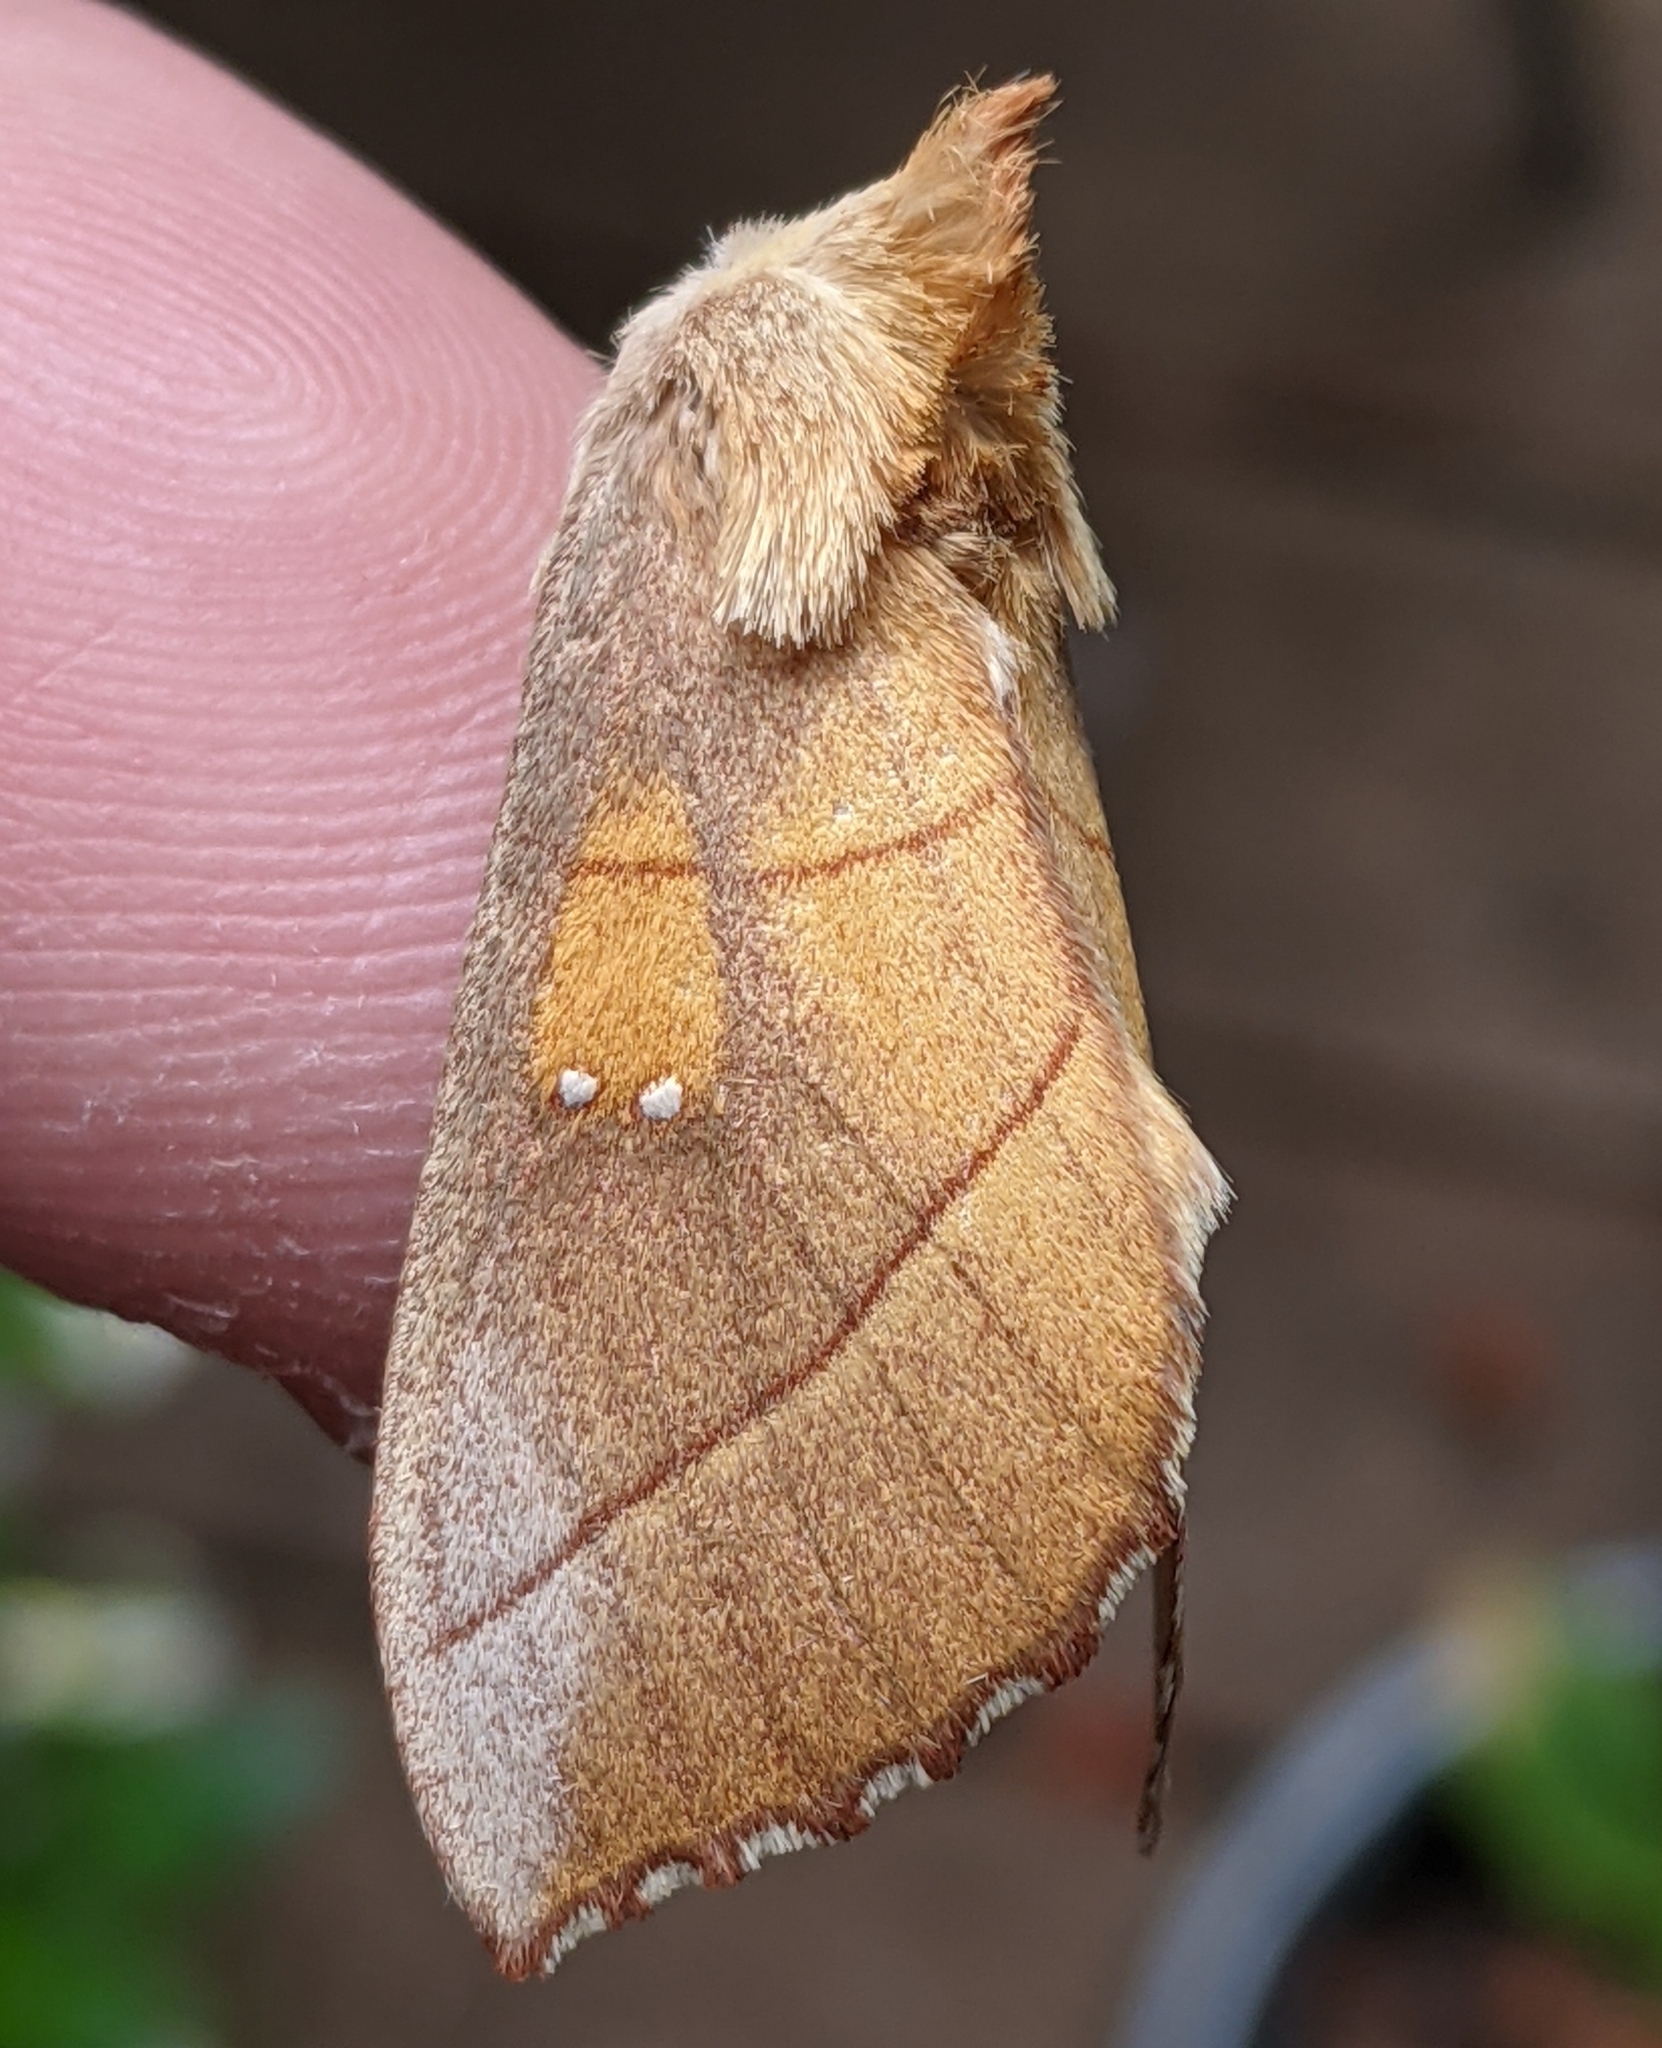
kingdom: Animalia
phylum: Arthropoda
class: Insecta
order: Lepidoptera
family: Notodontidae
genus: Nadata
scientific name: Nadata gibbosa
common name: White-dotted prominent
